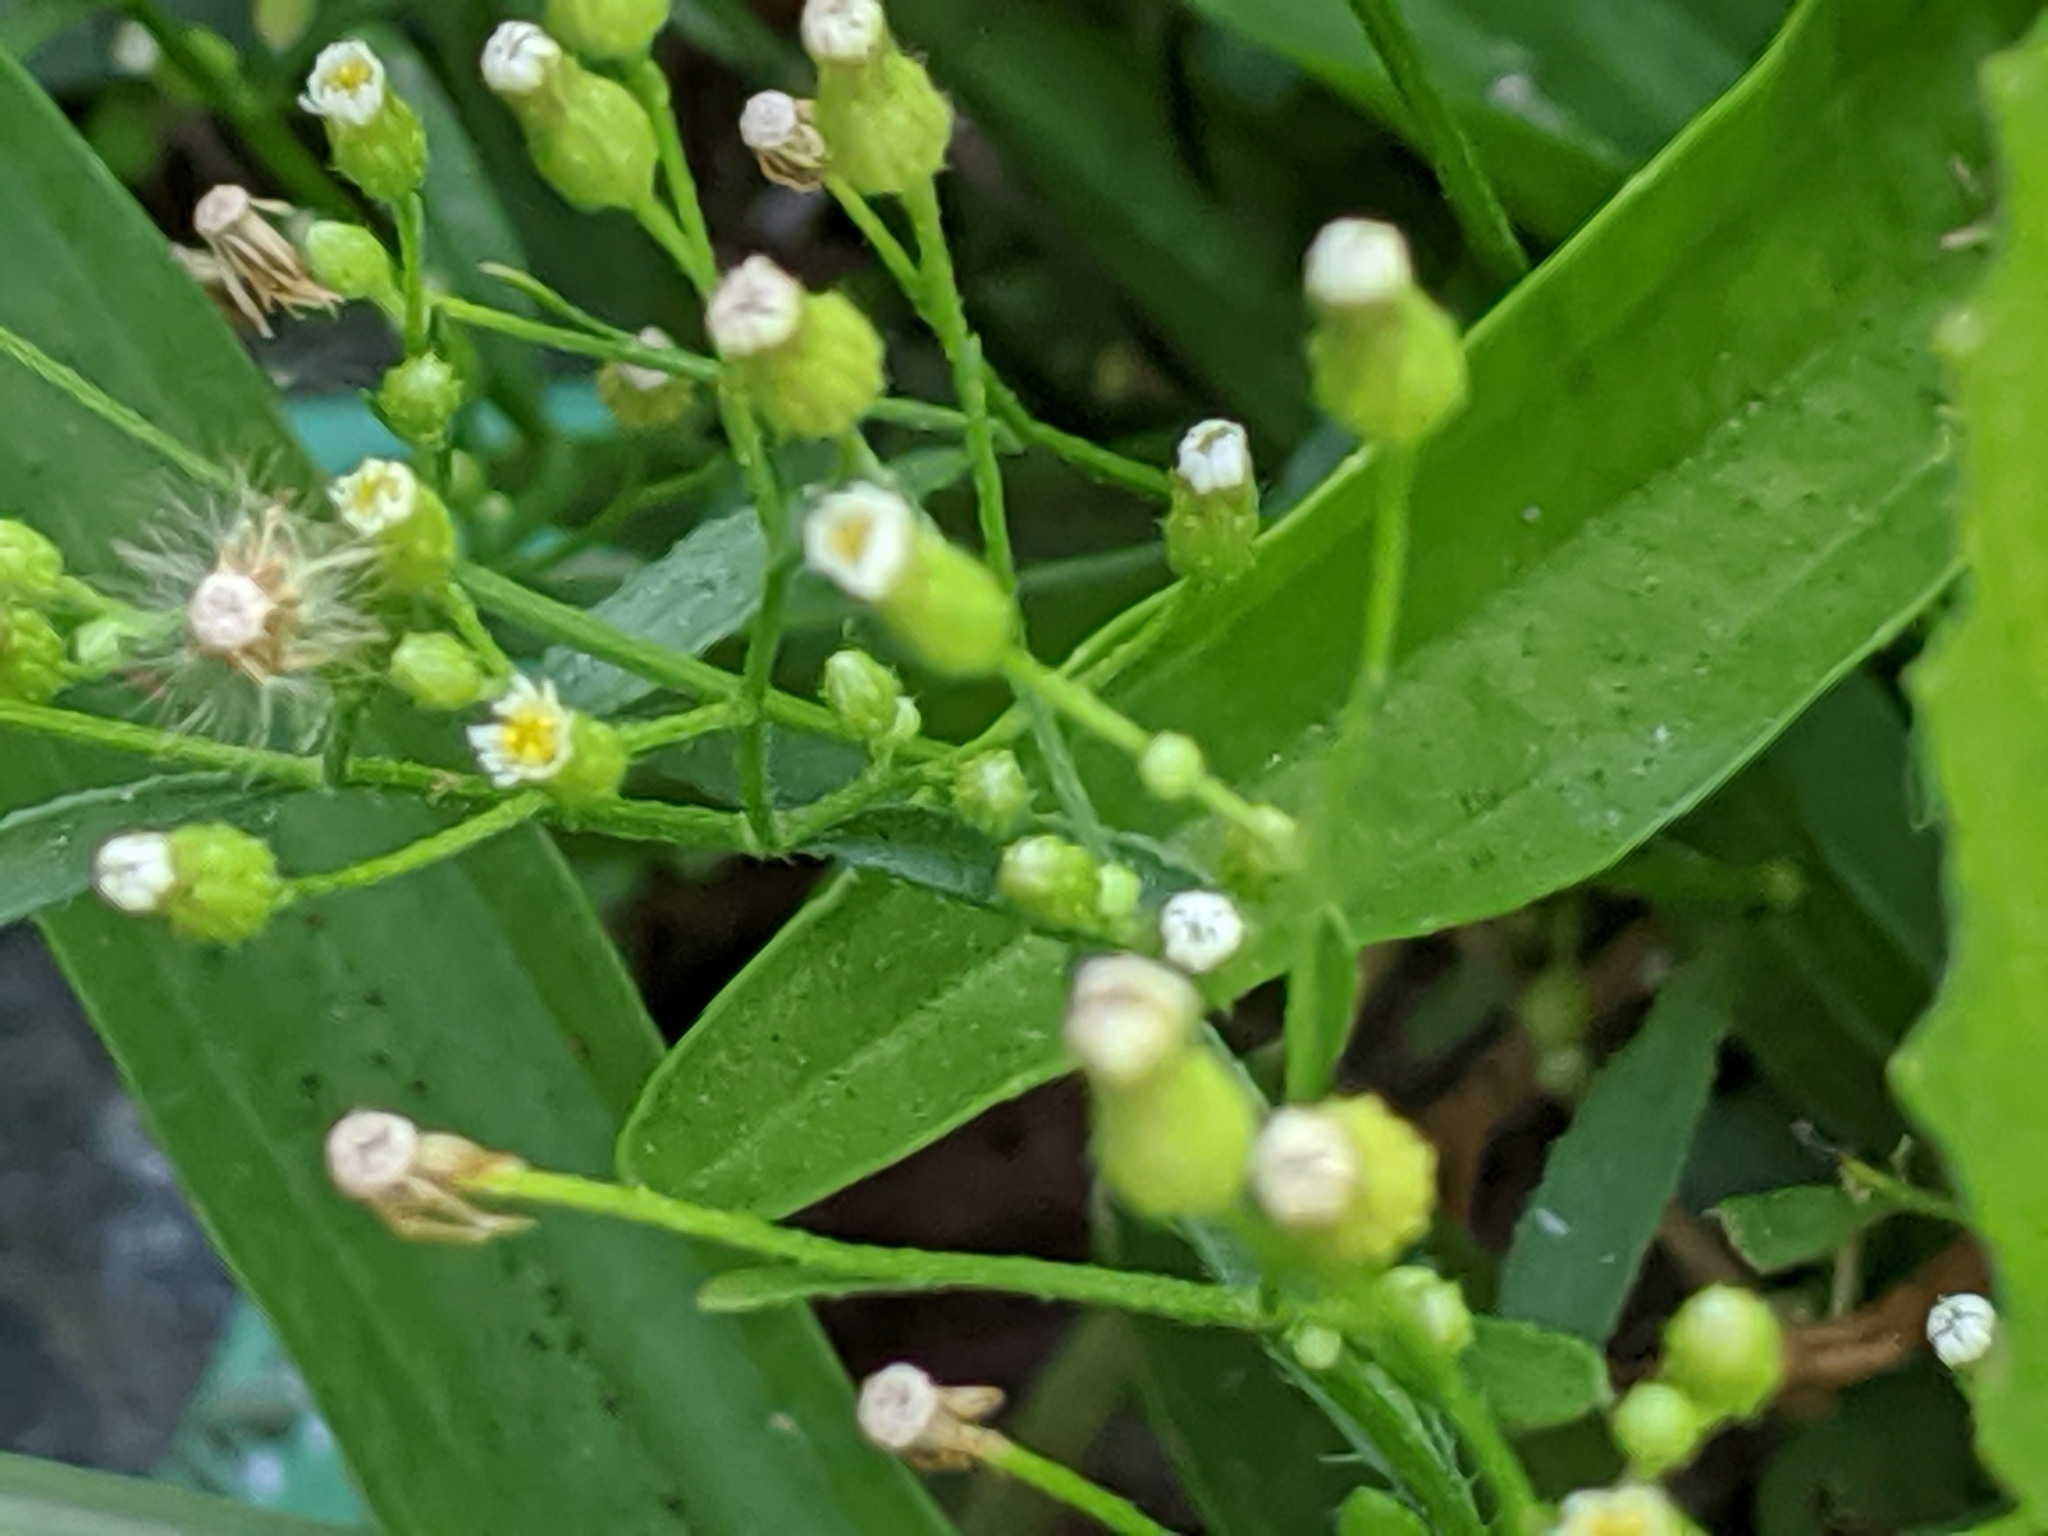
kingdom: Plantae
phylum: Tracheophyta
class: Magnoliopsida
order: Asterales
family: Asteraceae
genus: Erigeron
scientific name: Erigeron canadensis
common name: Canadian fleabane
